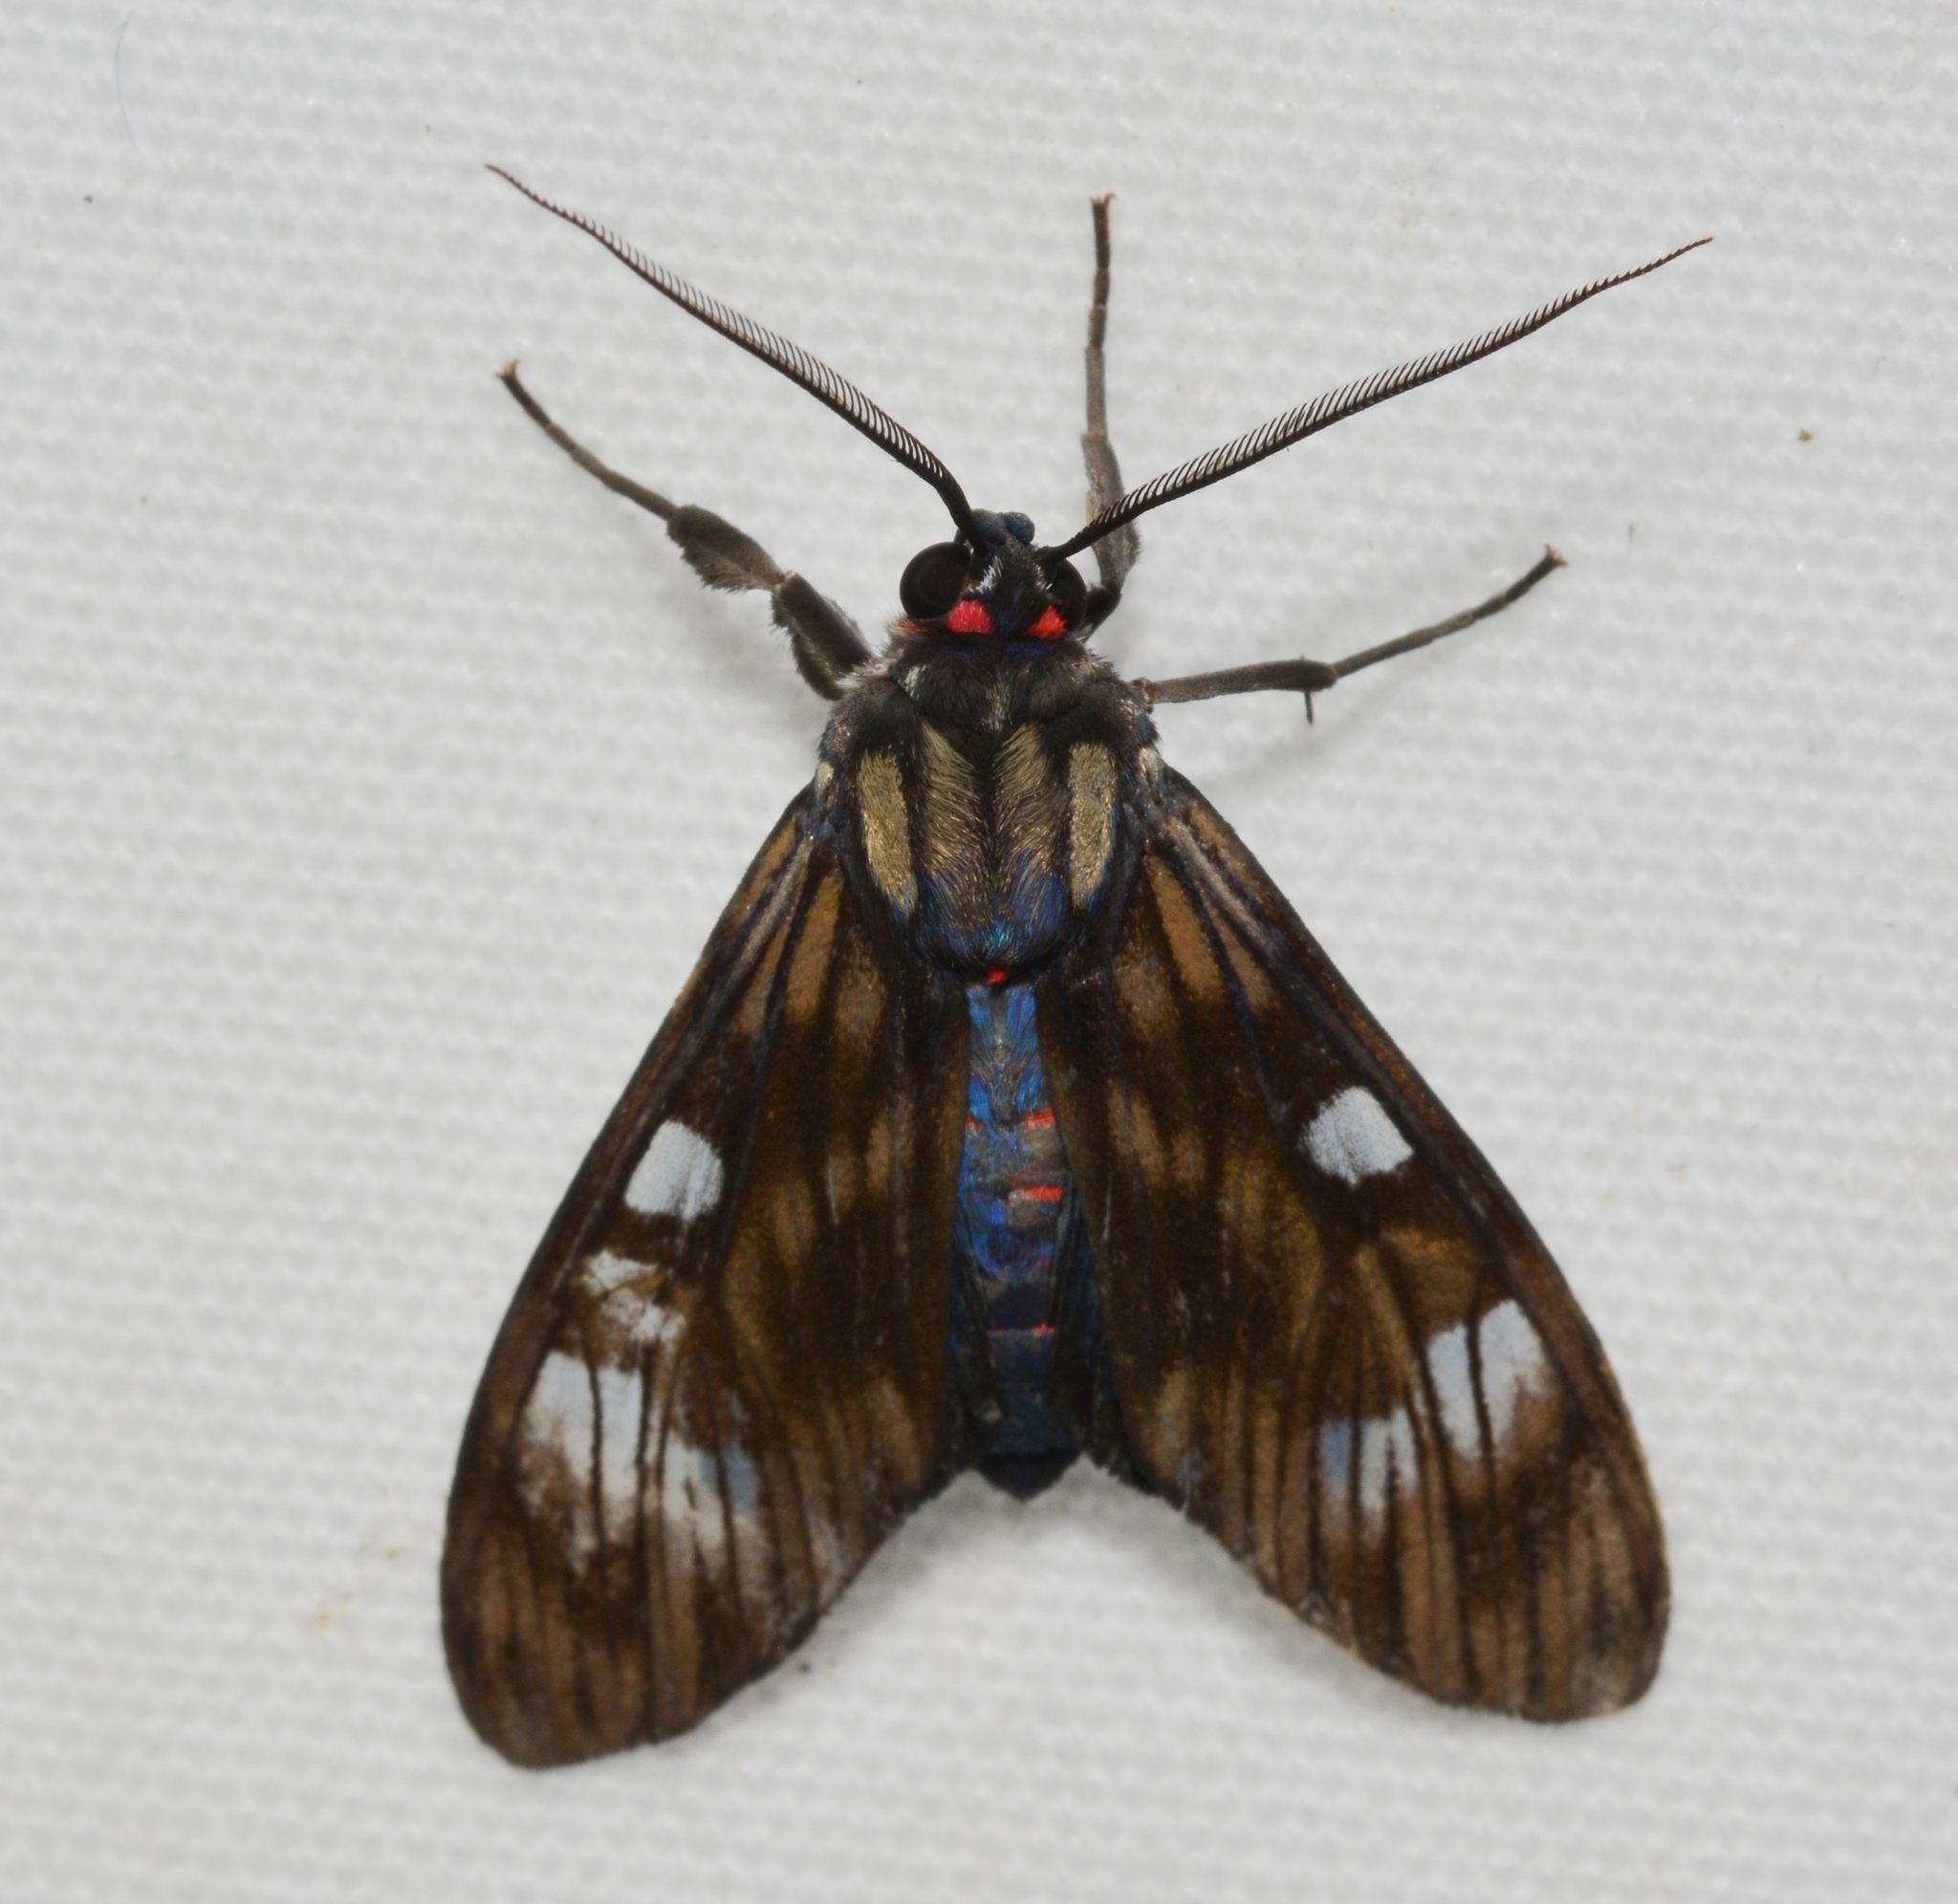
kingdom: Animalia
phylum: Arthropoda
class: Insecta
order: Lepidoptera
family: Erebidae
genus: Episcepsis
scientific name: Episcepsis
